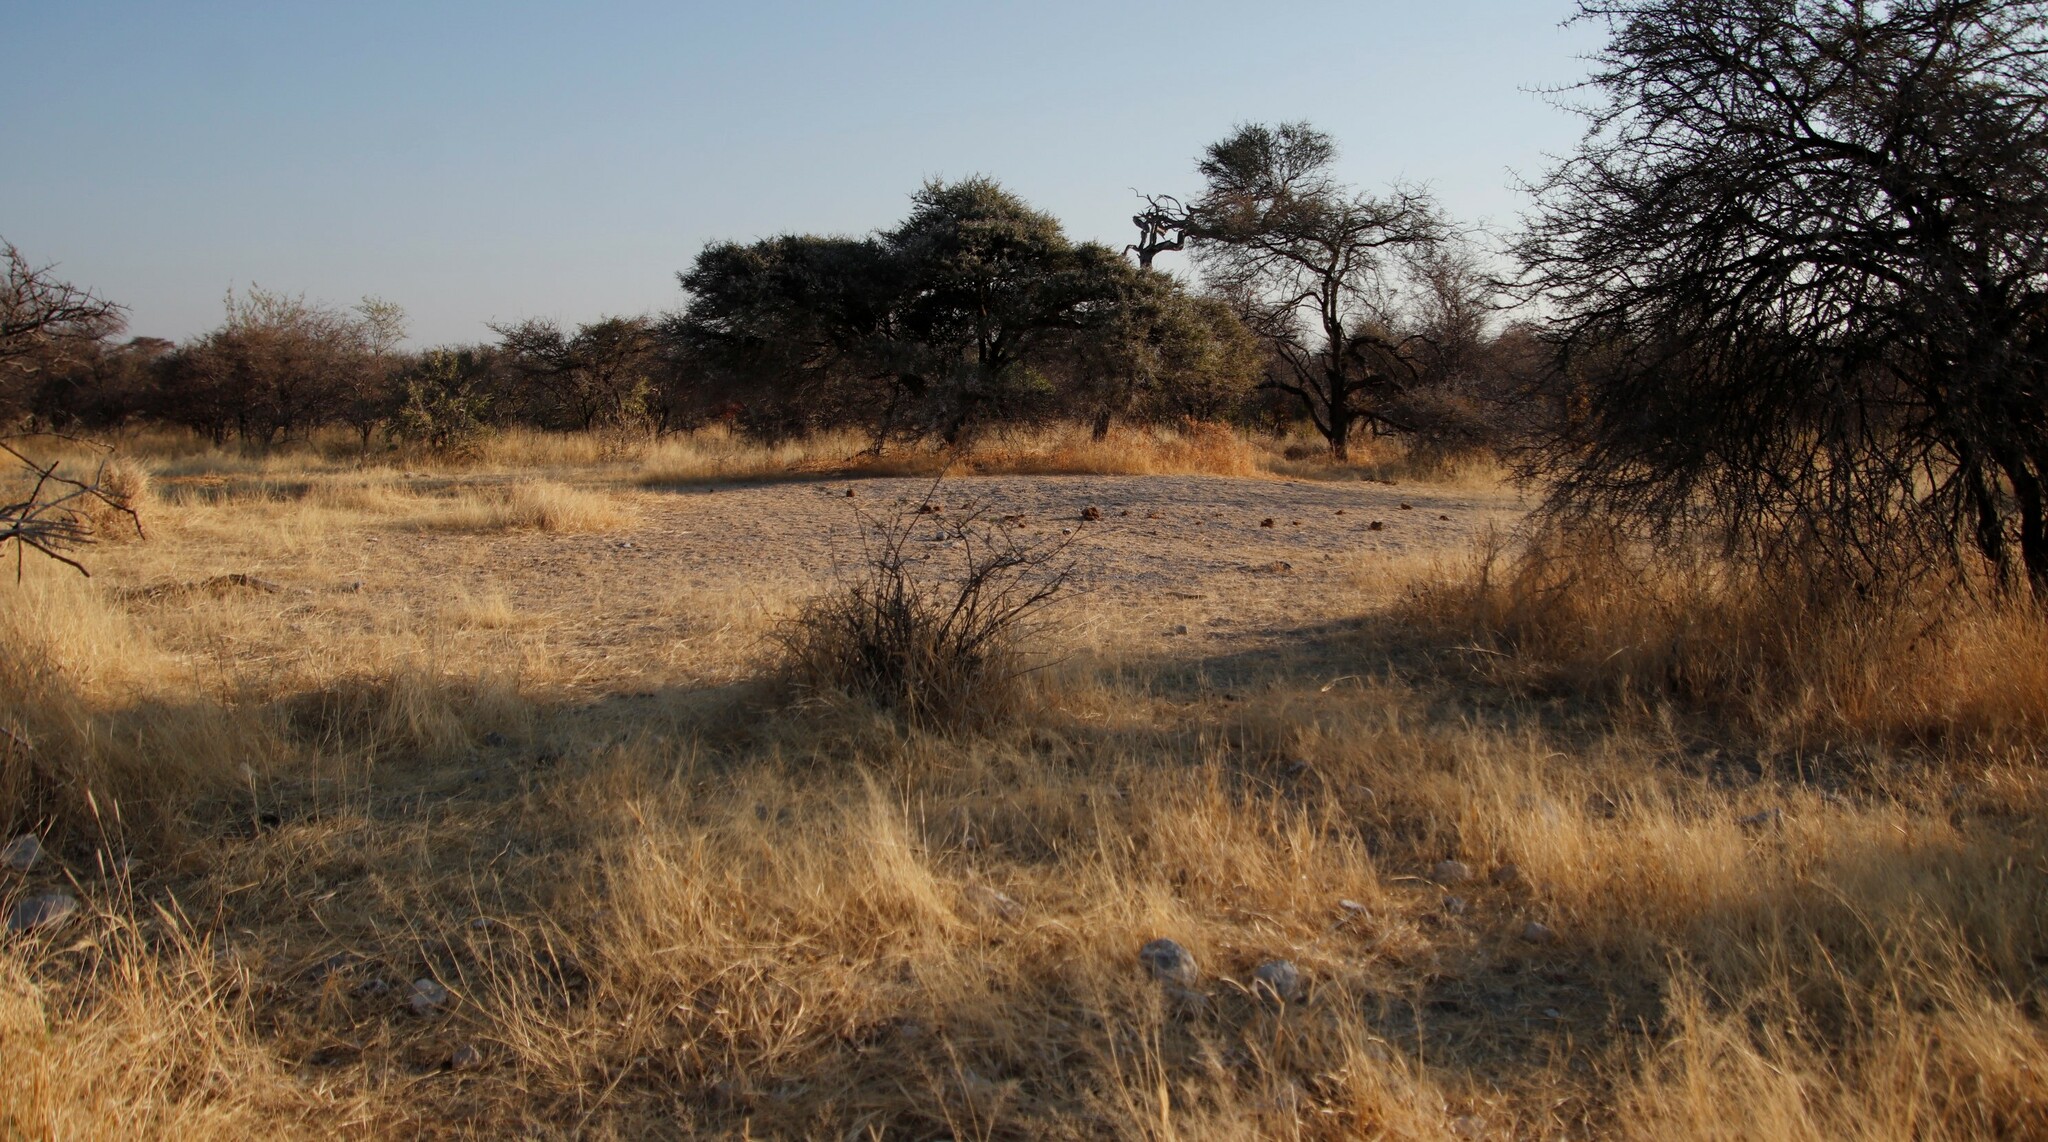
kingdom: Plantae
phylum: Tracheophyta
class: Magnoliopsida
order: Fabales
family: Fabaceae
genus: Vachellia
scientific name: Vachellia tortilis
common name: Umbrella thorn acacia
